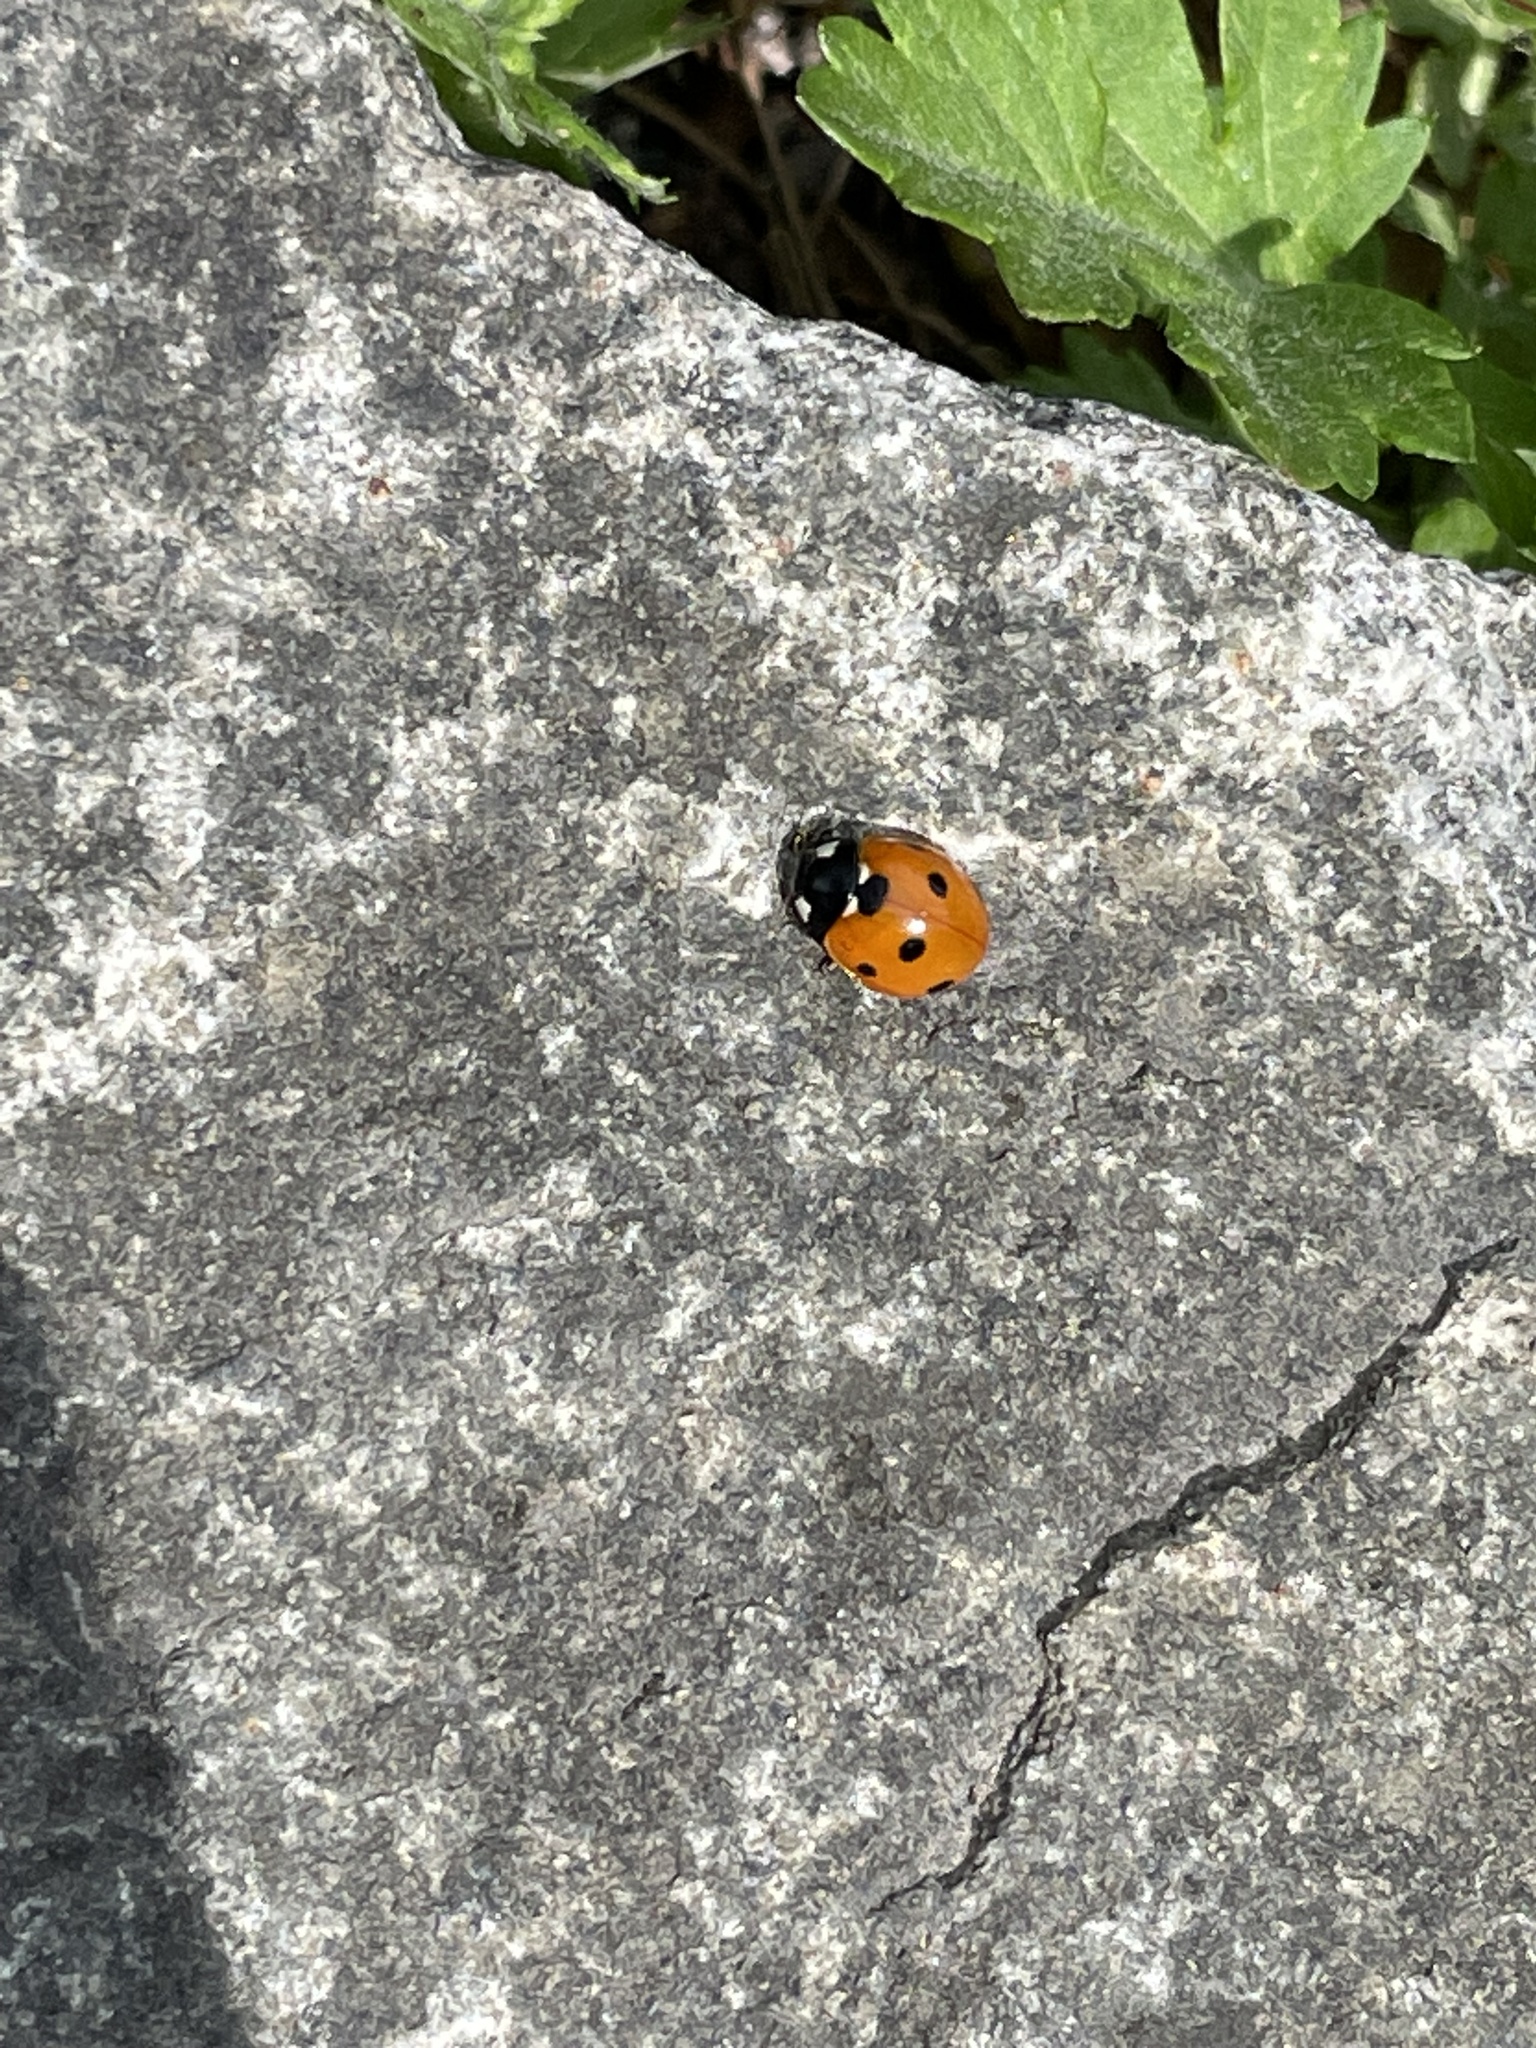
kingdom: Animalia
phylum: Arthropoda
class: Insecta
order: Coleoptera
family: Coccinellidae
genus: Coccinella
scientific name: Coccinella septempunctata
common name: Sevenspotted lady beetle
